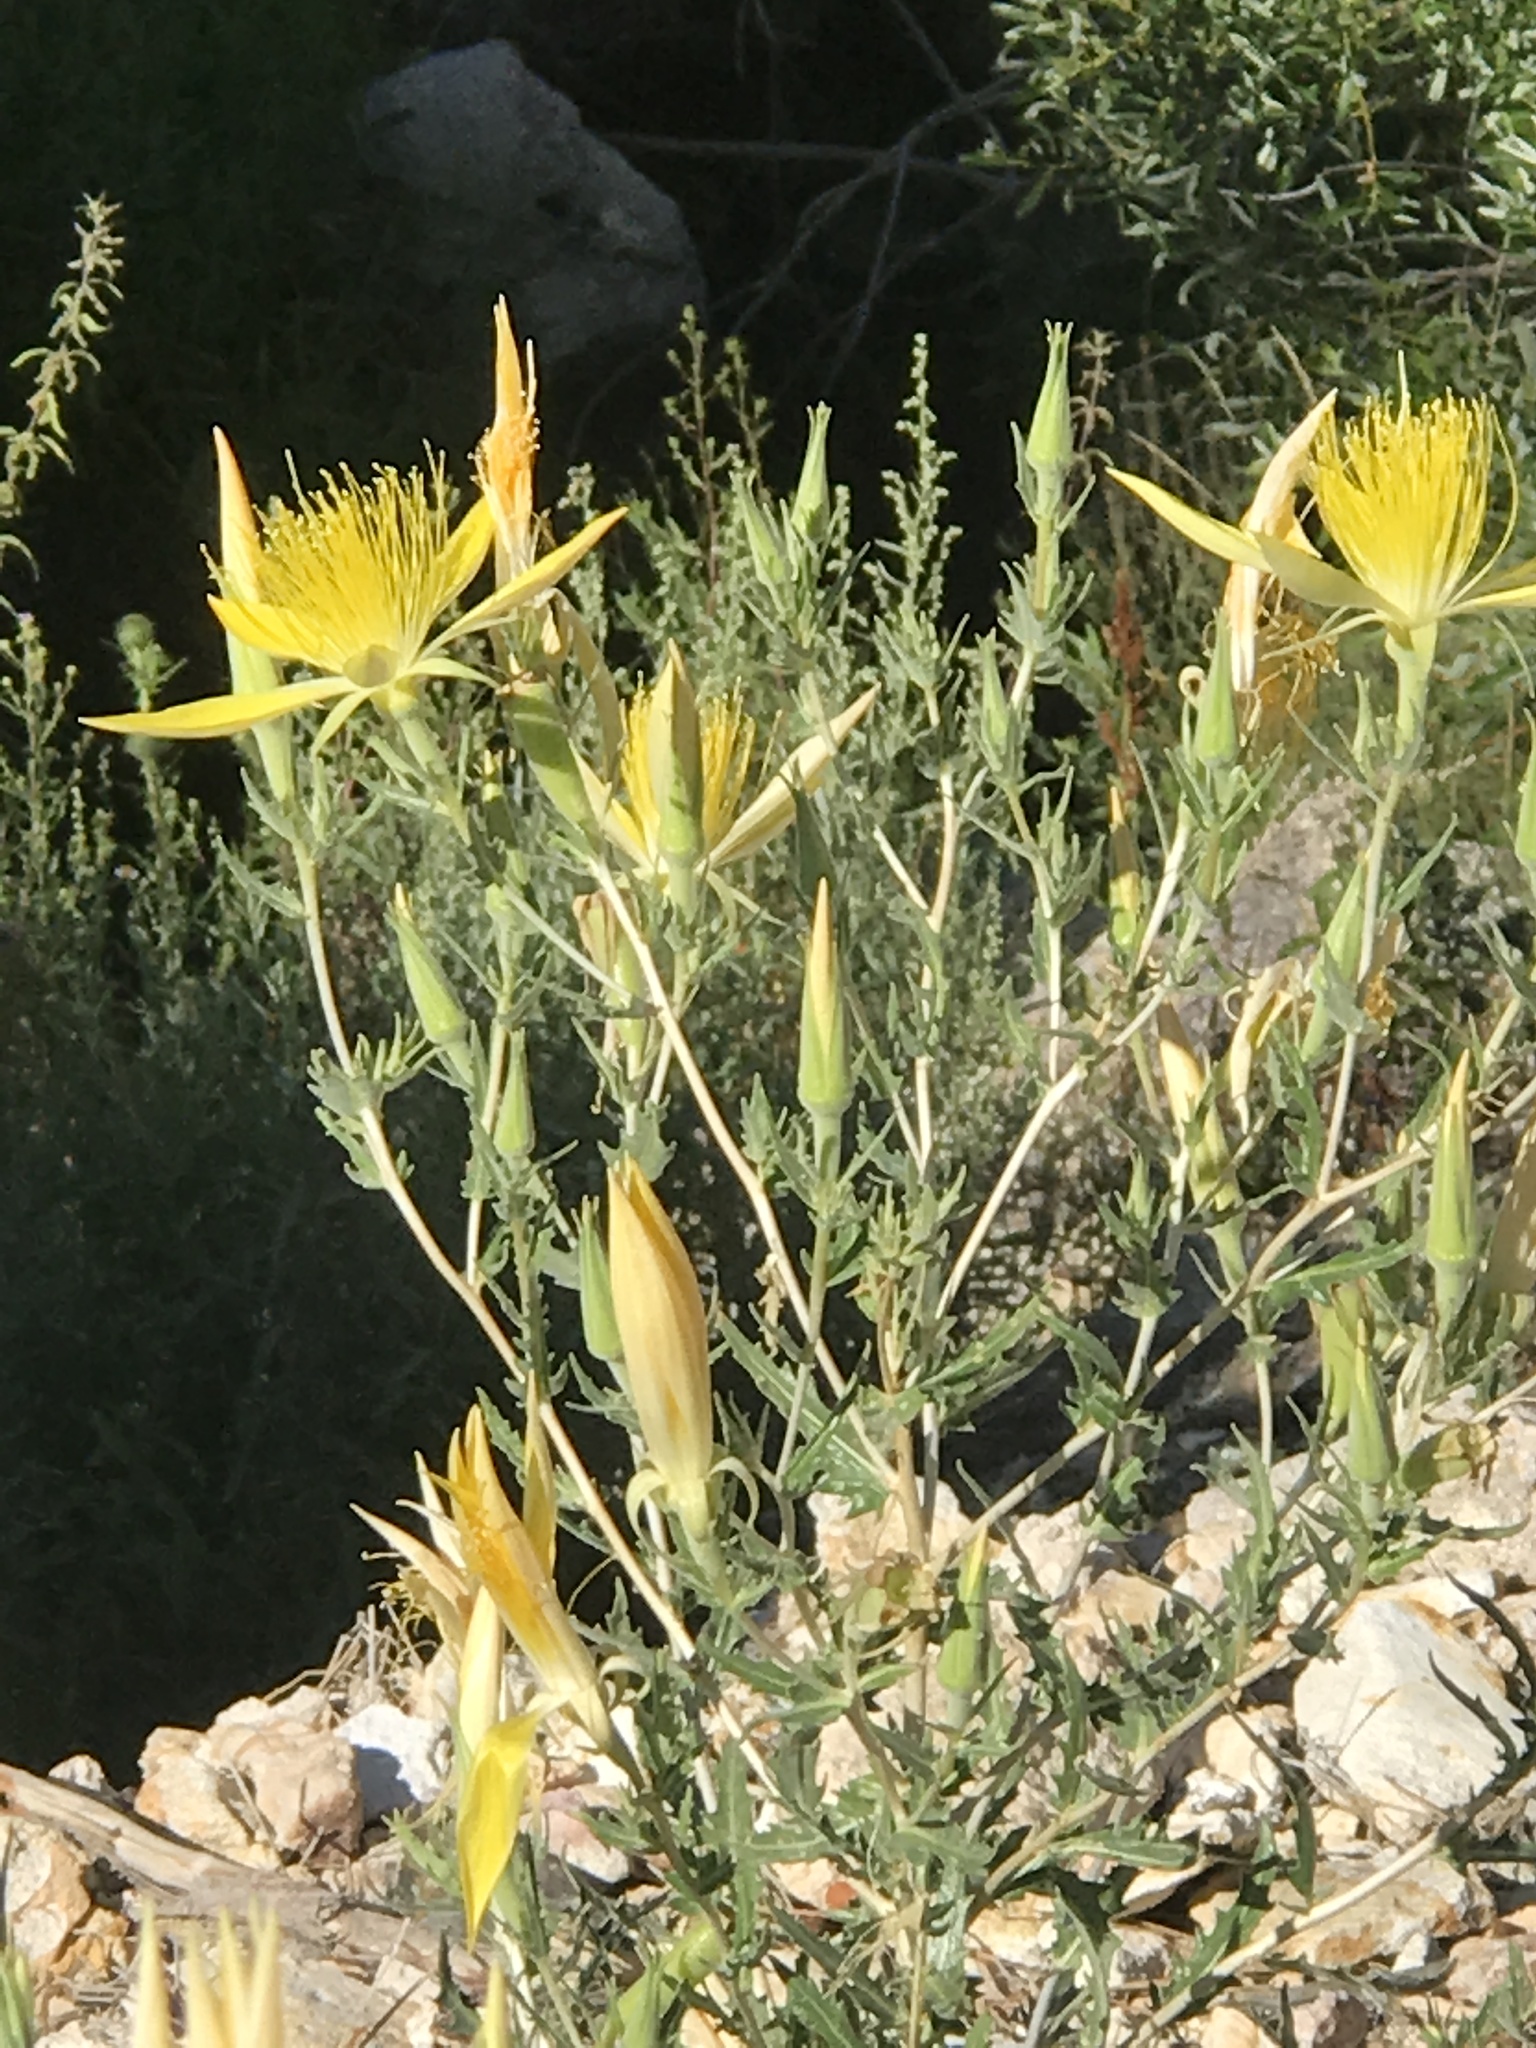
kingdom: Plantae
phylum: Tracheophyta
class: Magnoliopsida
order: Cornales
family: Loasaceae
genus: Mentzelia
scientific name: Mentzelia laevicaulis
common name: Smooth-stem blazingstar
